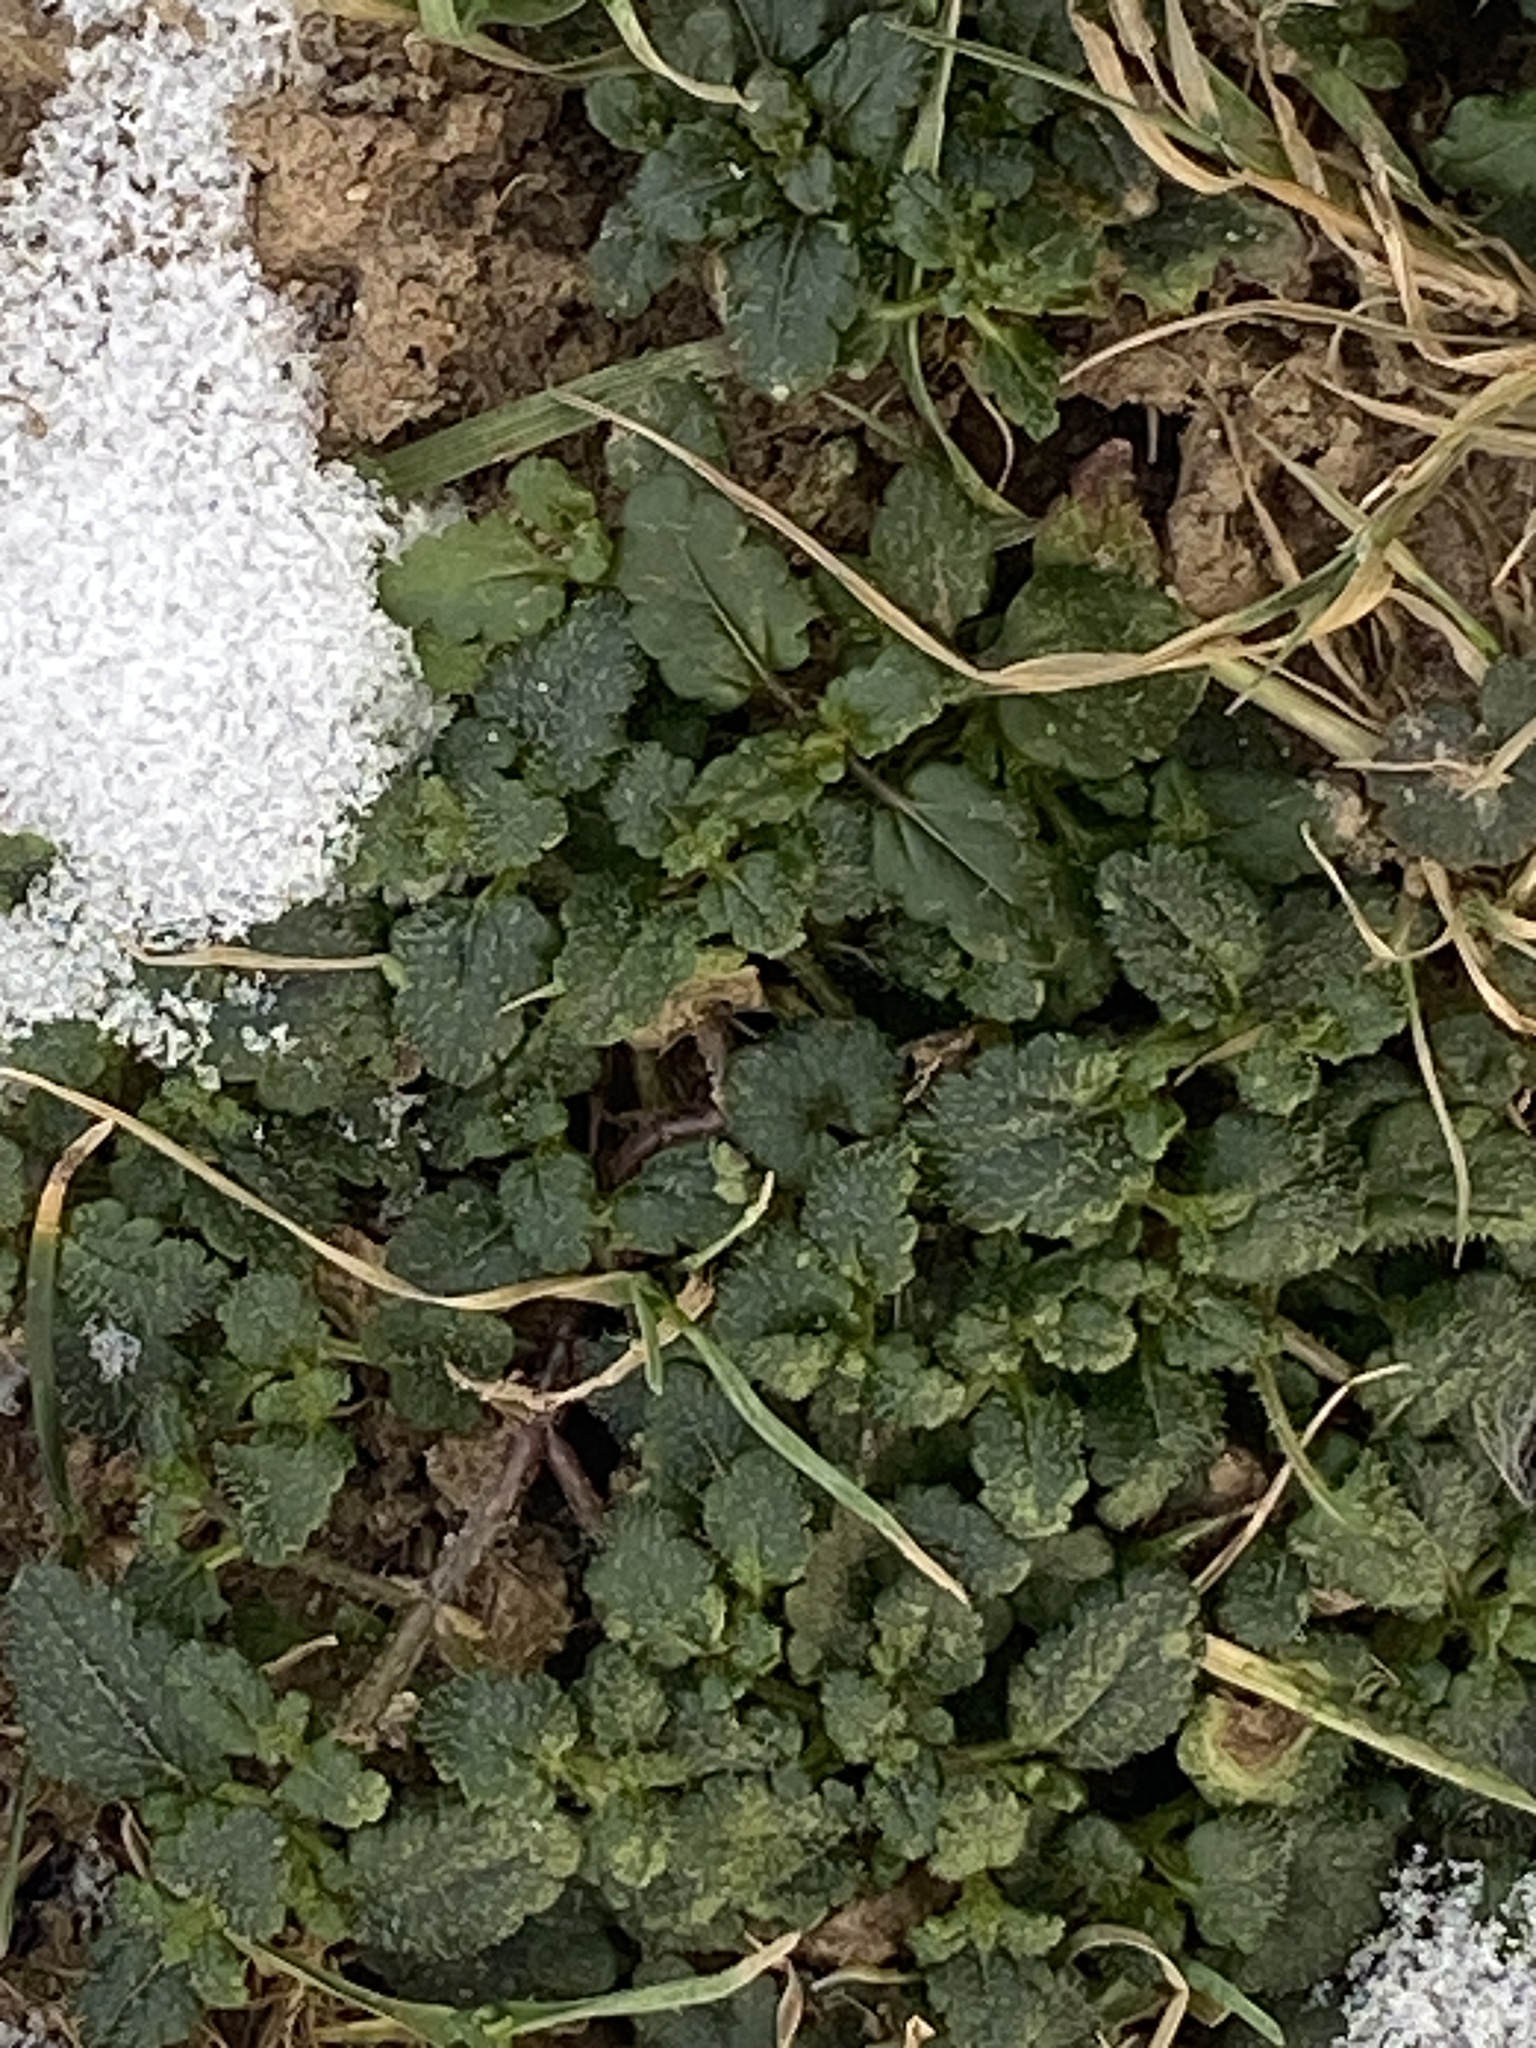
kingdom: Plantae
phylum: Tracheophyta
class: Magnoliopsida
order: Lamiales
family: Plantaginaceae
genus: Veronica
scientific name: Veronica persica
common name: Common field-speedwell
